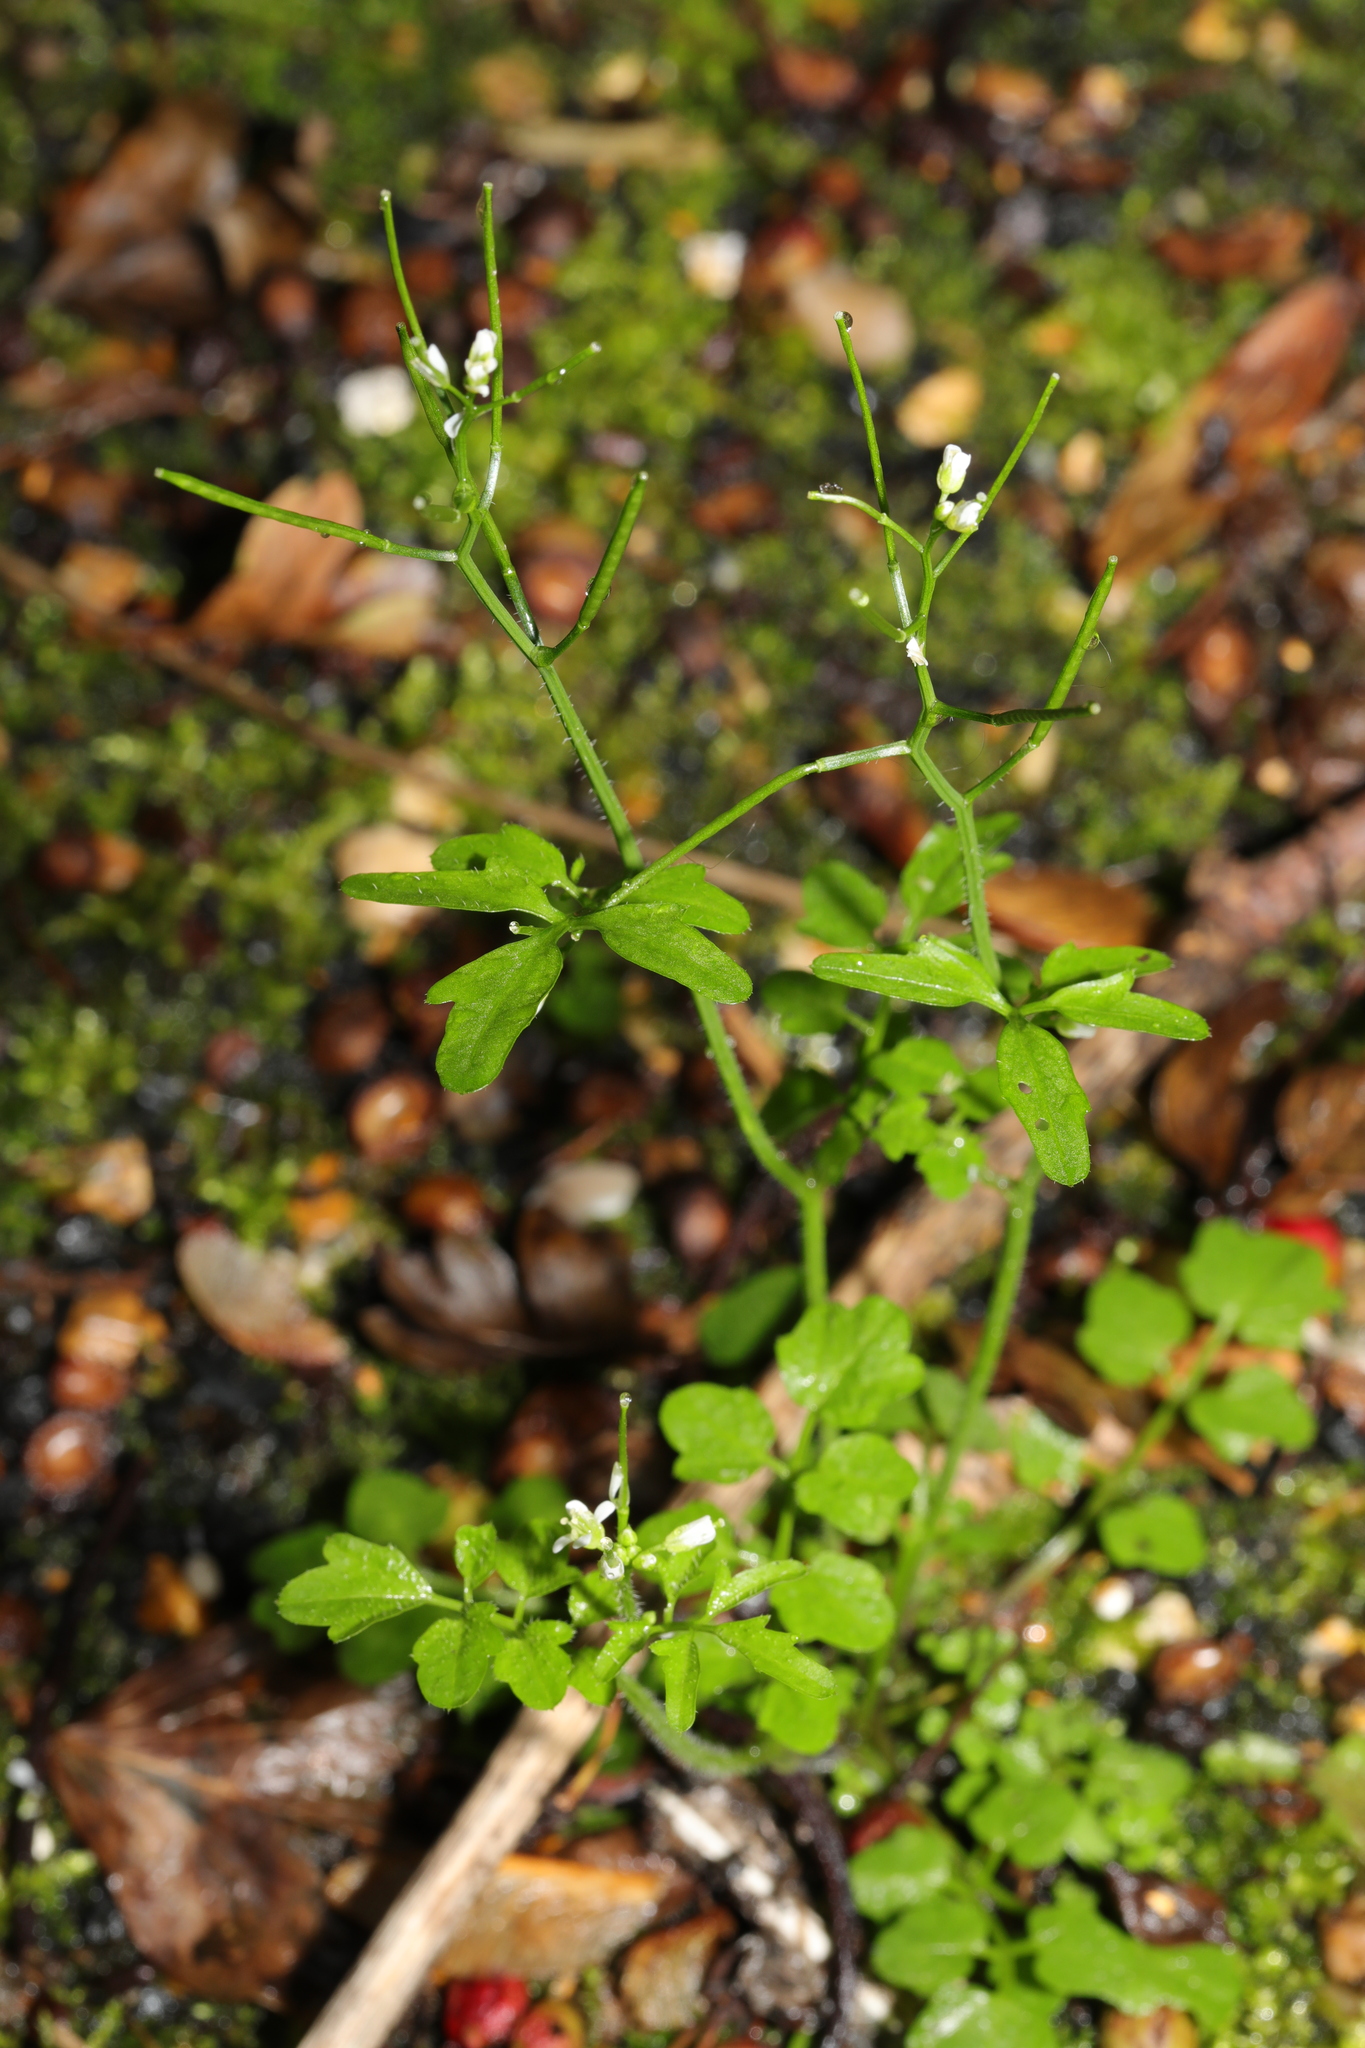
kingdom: Plantae
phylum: Tracheophyta
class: Magnoliopsida
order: Brassicales
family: Brassicaceae
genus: Cardamine
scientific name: Cardamine flexuosa
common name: Woodland bittercress
